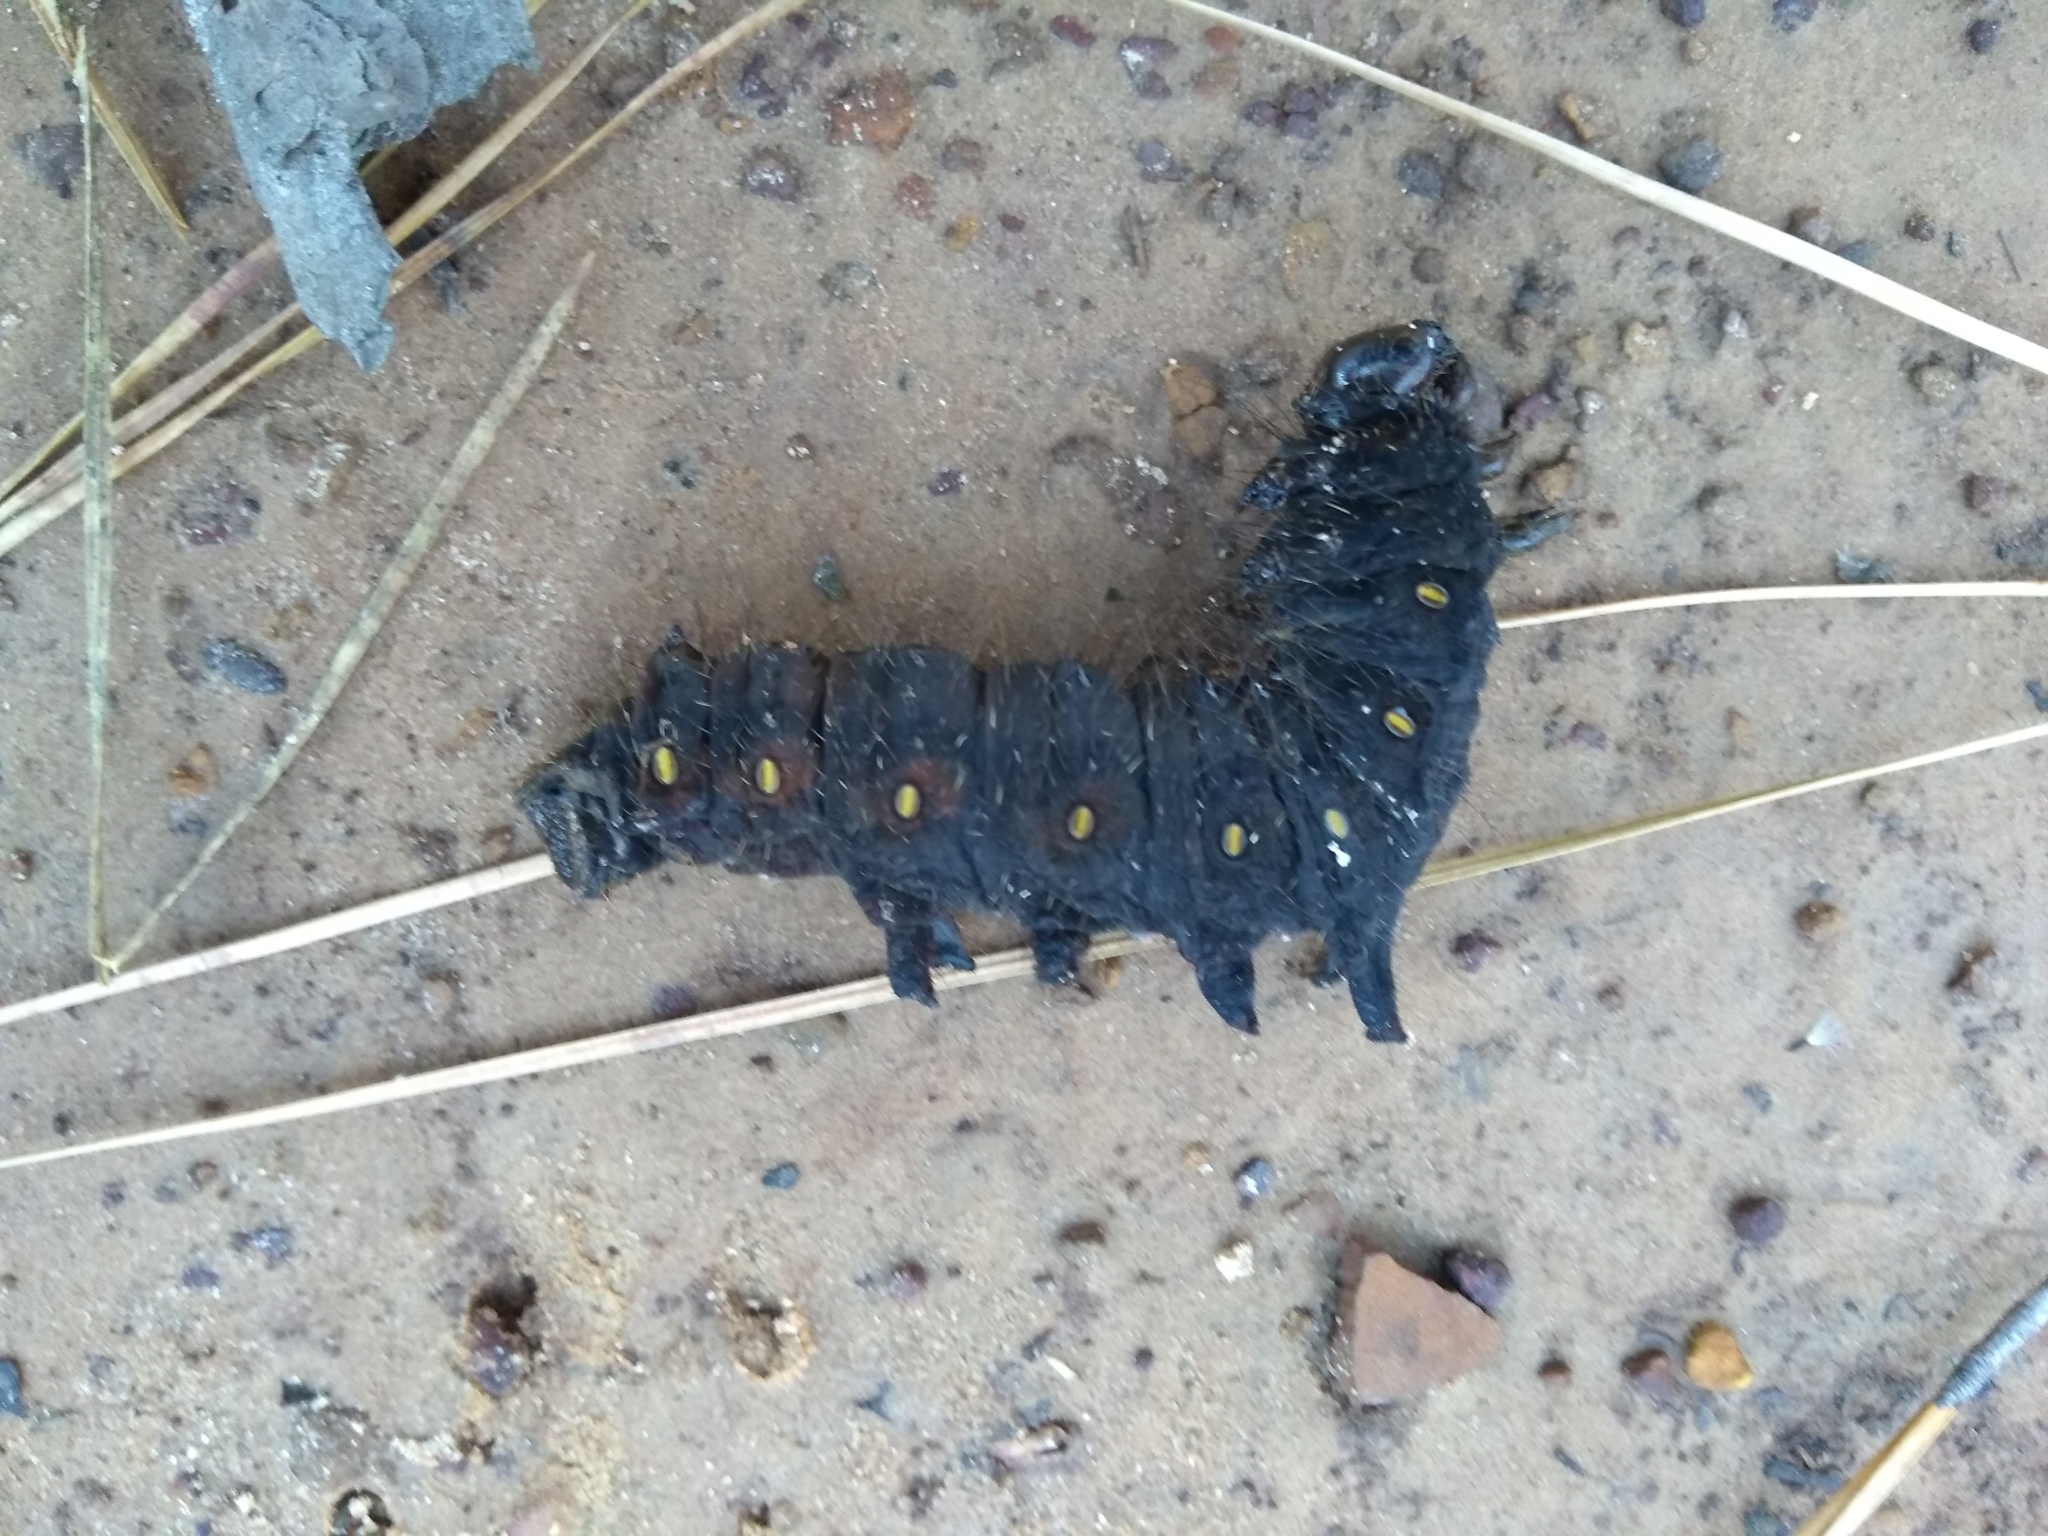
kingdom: Animalia
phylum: Arthropoda
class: Insecta
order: Lepidoptera
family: Saturniidae
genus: Eacles
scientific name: Eacles imperialis
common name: Imperial moth
